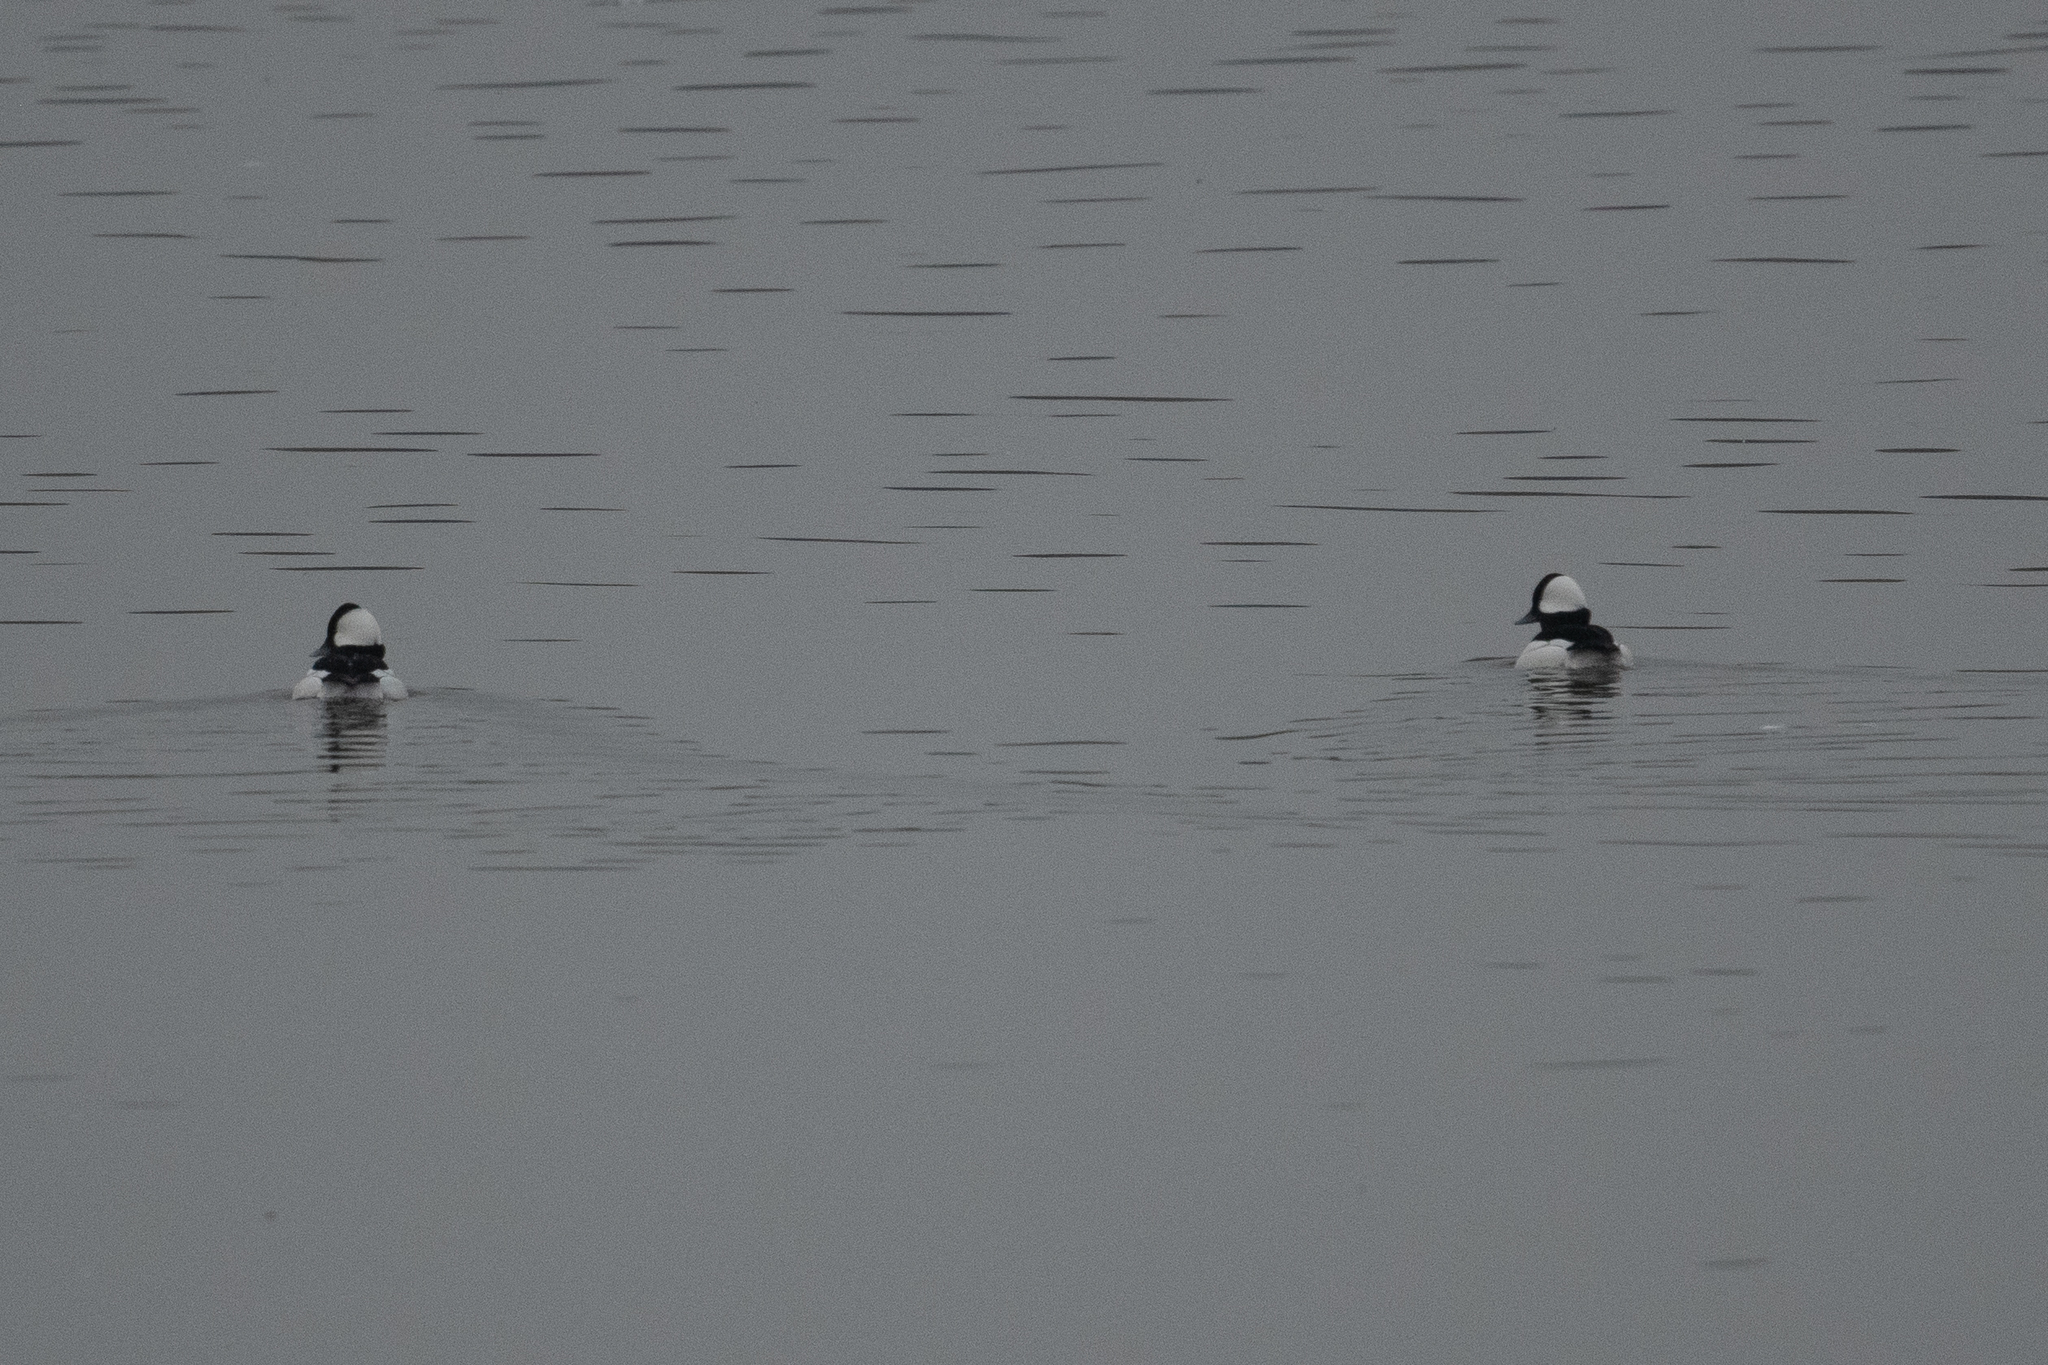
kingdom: Animalia
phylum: Chordata
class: Aves
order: Anseriformes
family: Anatidae
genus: Bucephala
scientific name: Bucephala albeola
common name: Bufflehead
